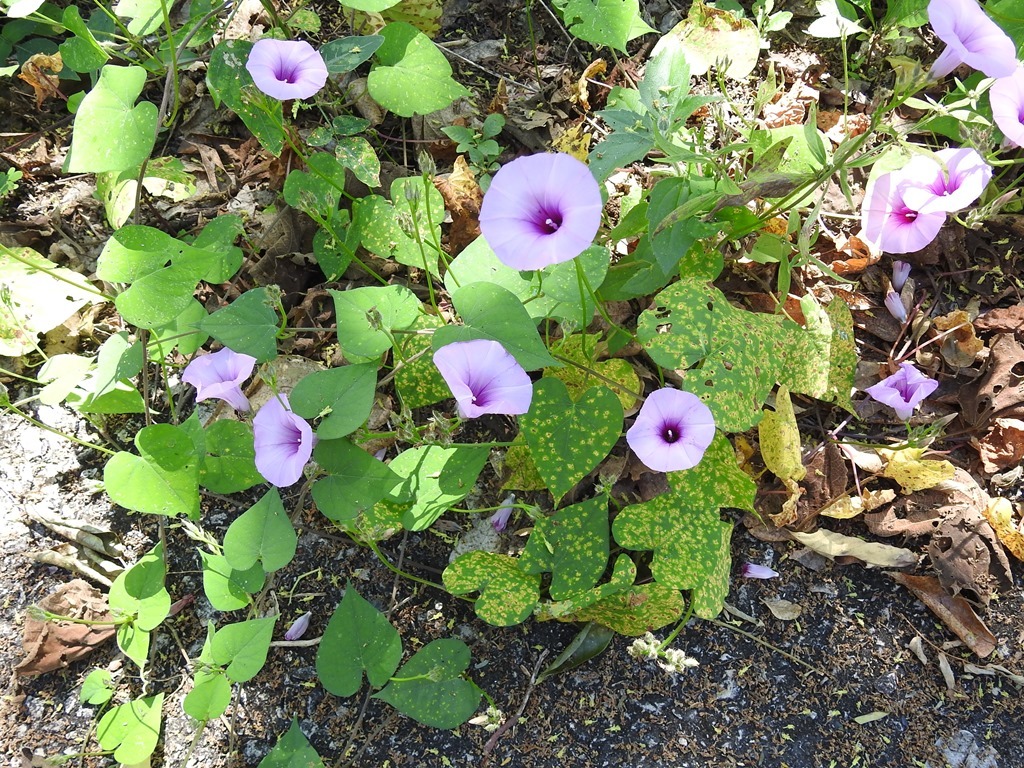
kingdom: Plantae
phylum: Tracheophyta
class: Magnoliopsida
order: Solanales
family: Convolvulaceae
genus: Ipomoea
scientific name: Ipomoea trifida
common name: Cotton morningglory
